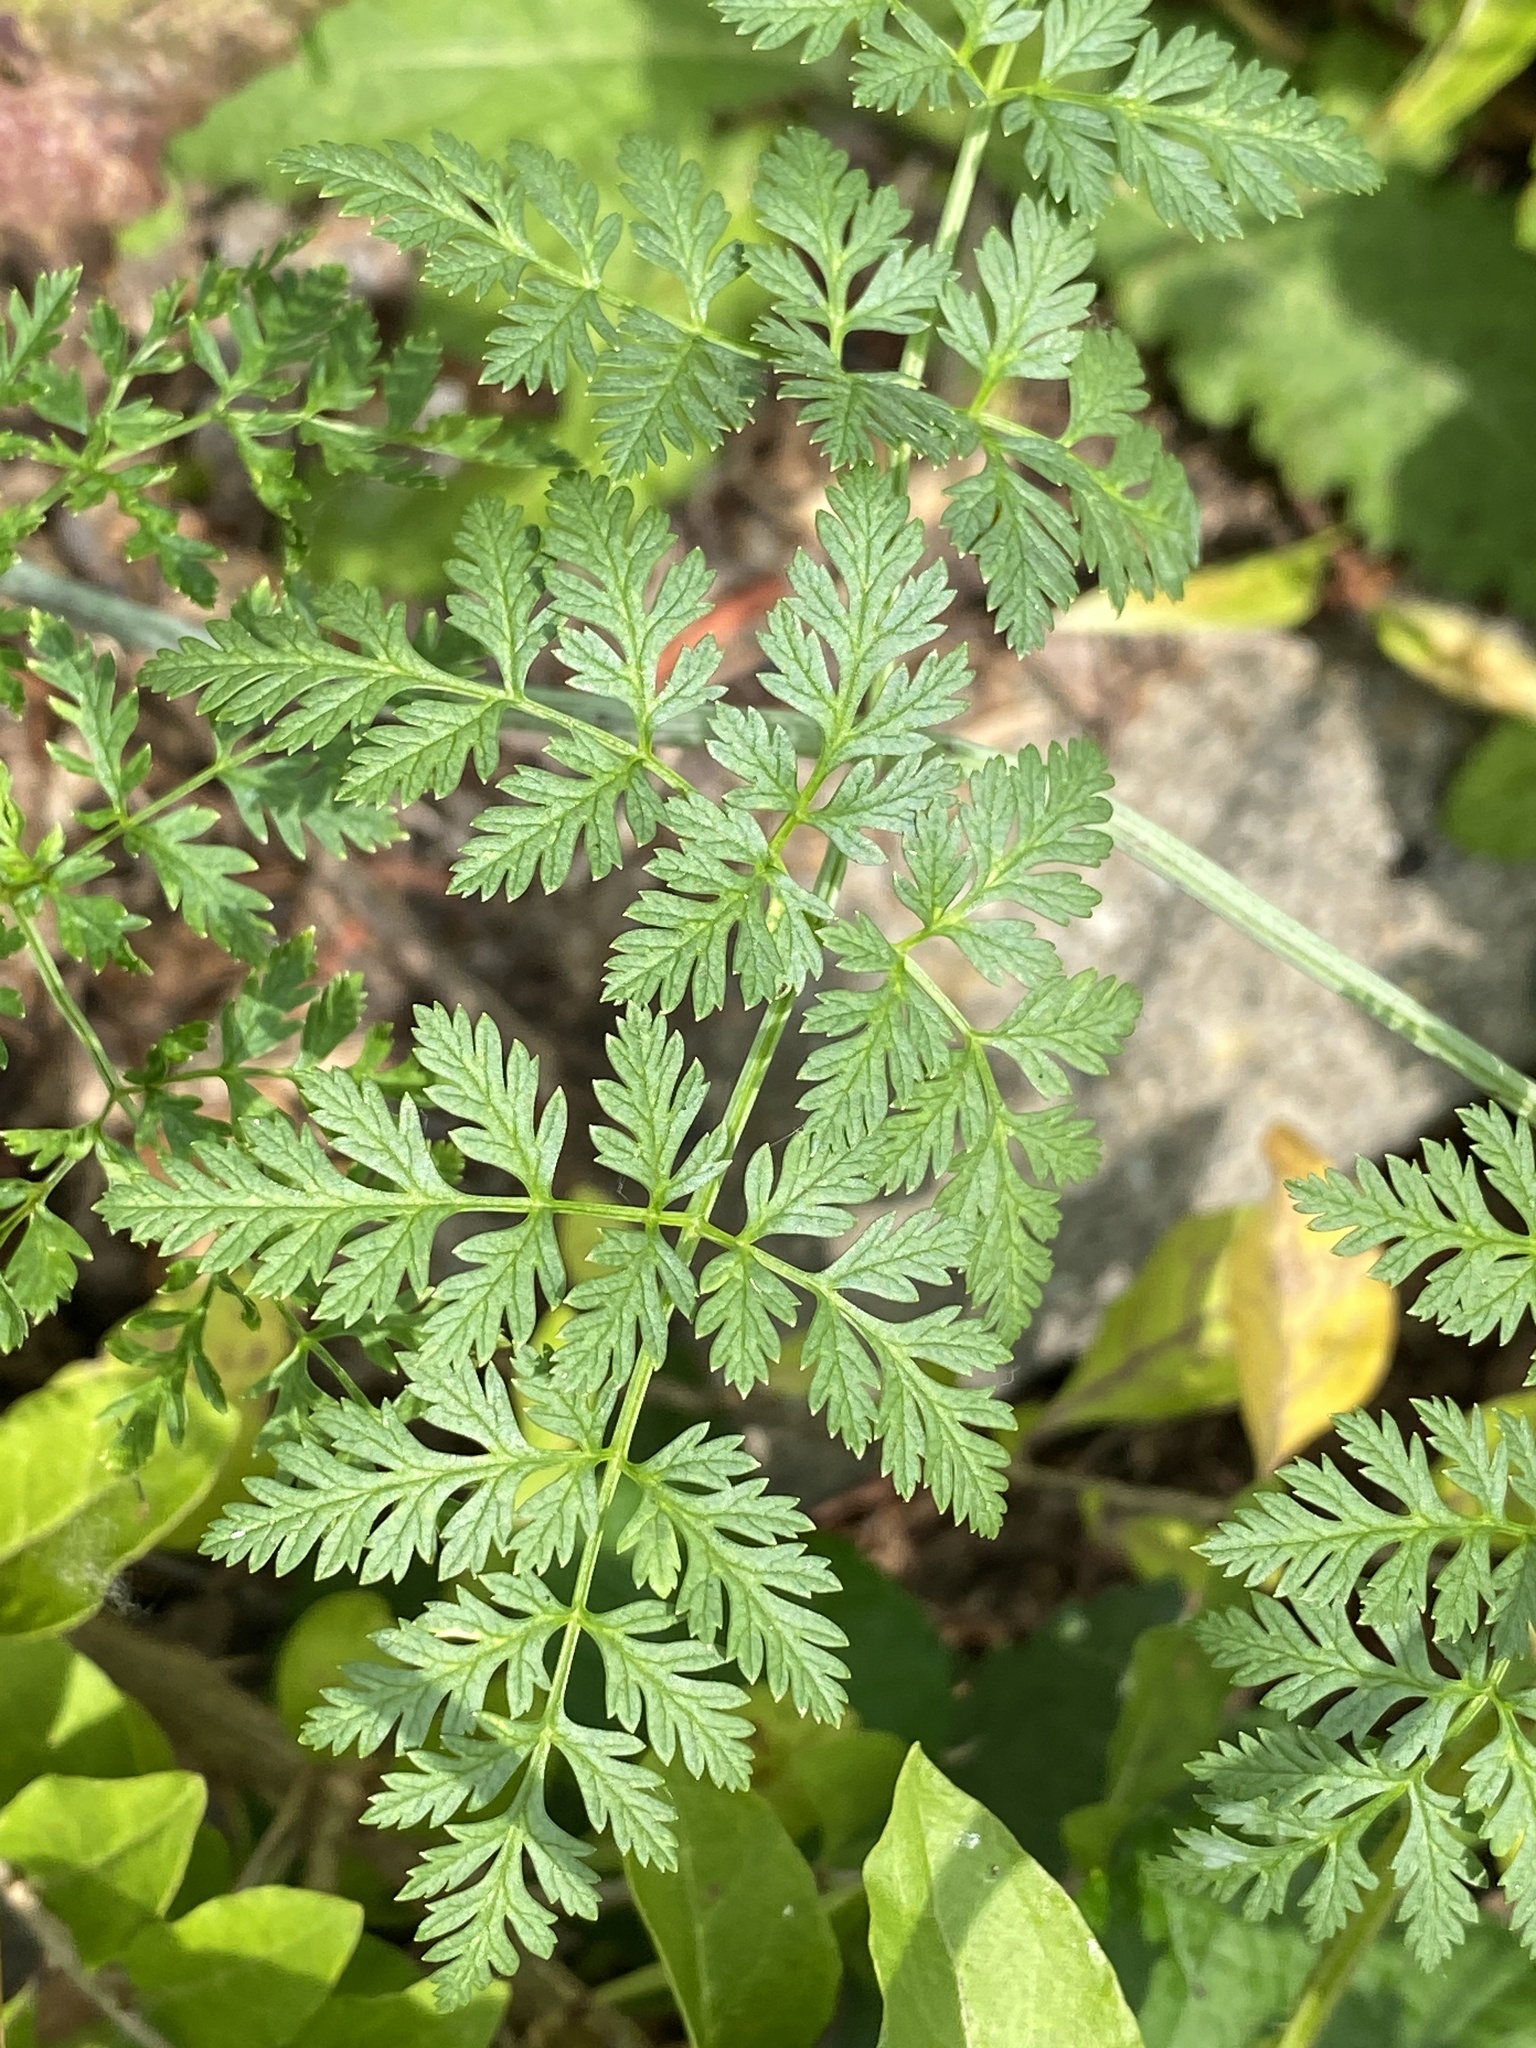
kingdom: Plantae
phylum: Tracheophyta
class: Magnoliopsida
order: Apiales
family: Apiaceae
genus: Conium
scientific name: Conium maculatum
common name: Hemlock
